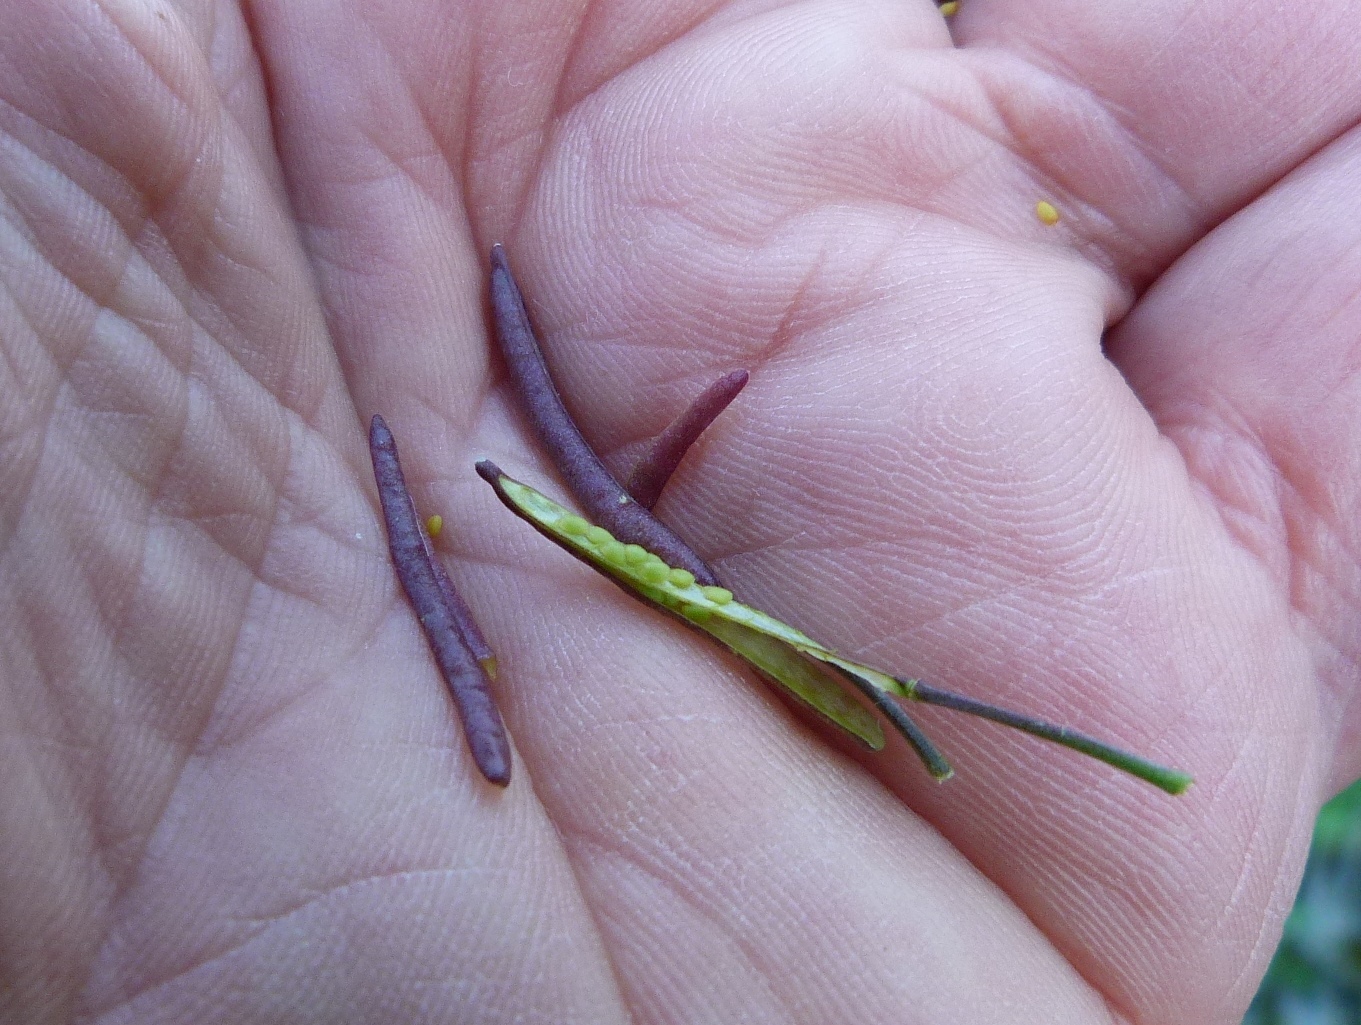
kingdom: Plantae
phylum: Tracheophyta
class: Magnoliopsida
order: Brassicales
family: Brassicaceae
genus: Nasturtium
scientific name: Nasturtium microphyllum
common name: Onerow yellowcress
